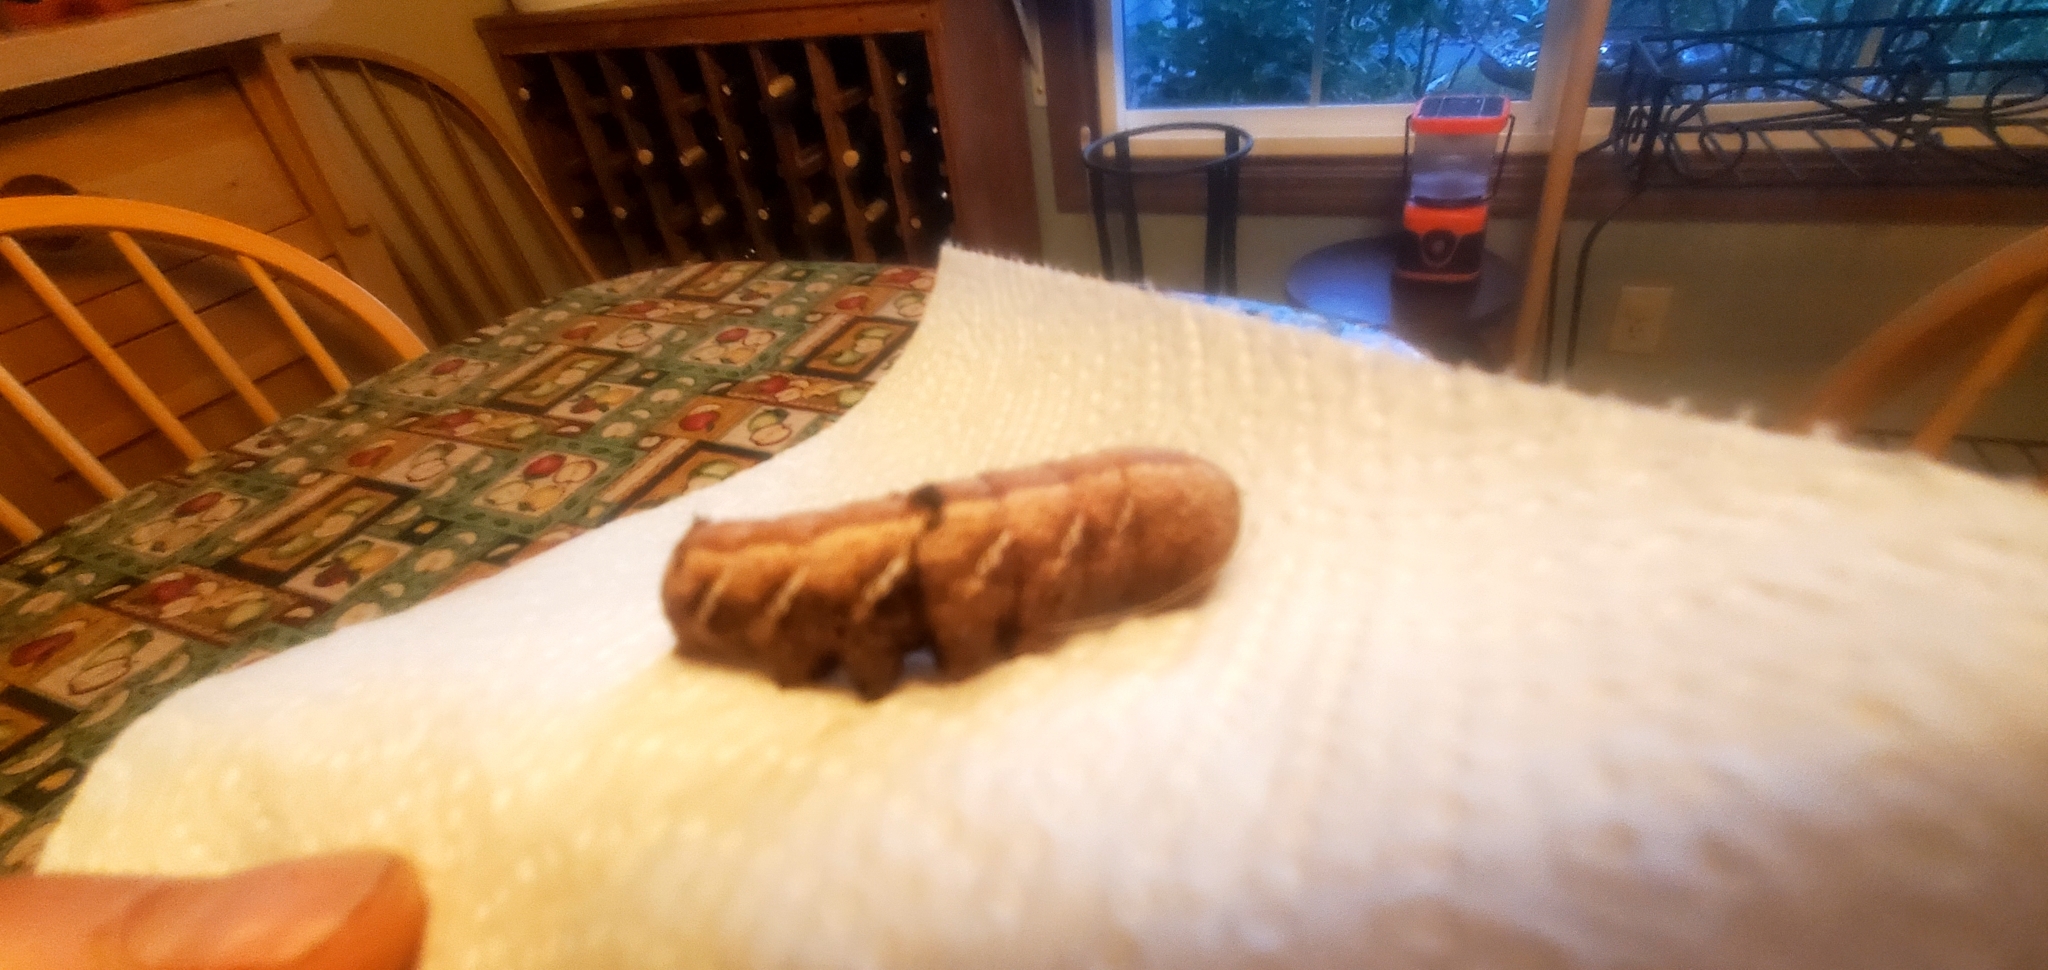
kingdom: Animalia
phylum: Arthropoda
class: Insecta
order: Lepidoptera
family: Sphingidae
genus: Eumorpha
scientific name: Eumorpha achemon
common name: Achemon sphinx
